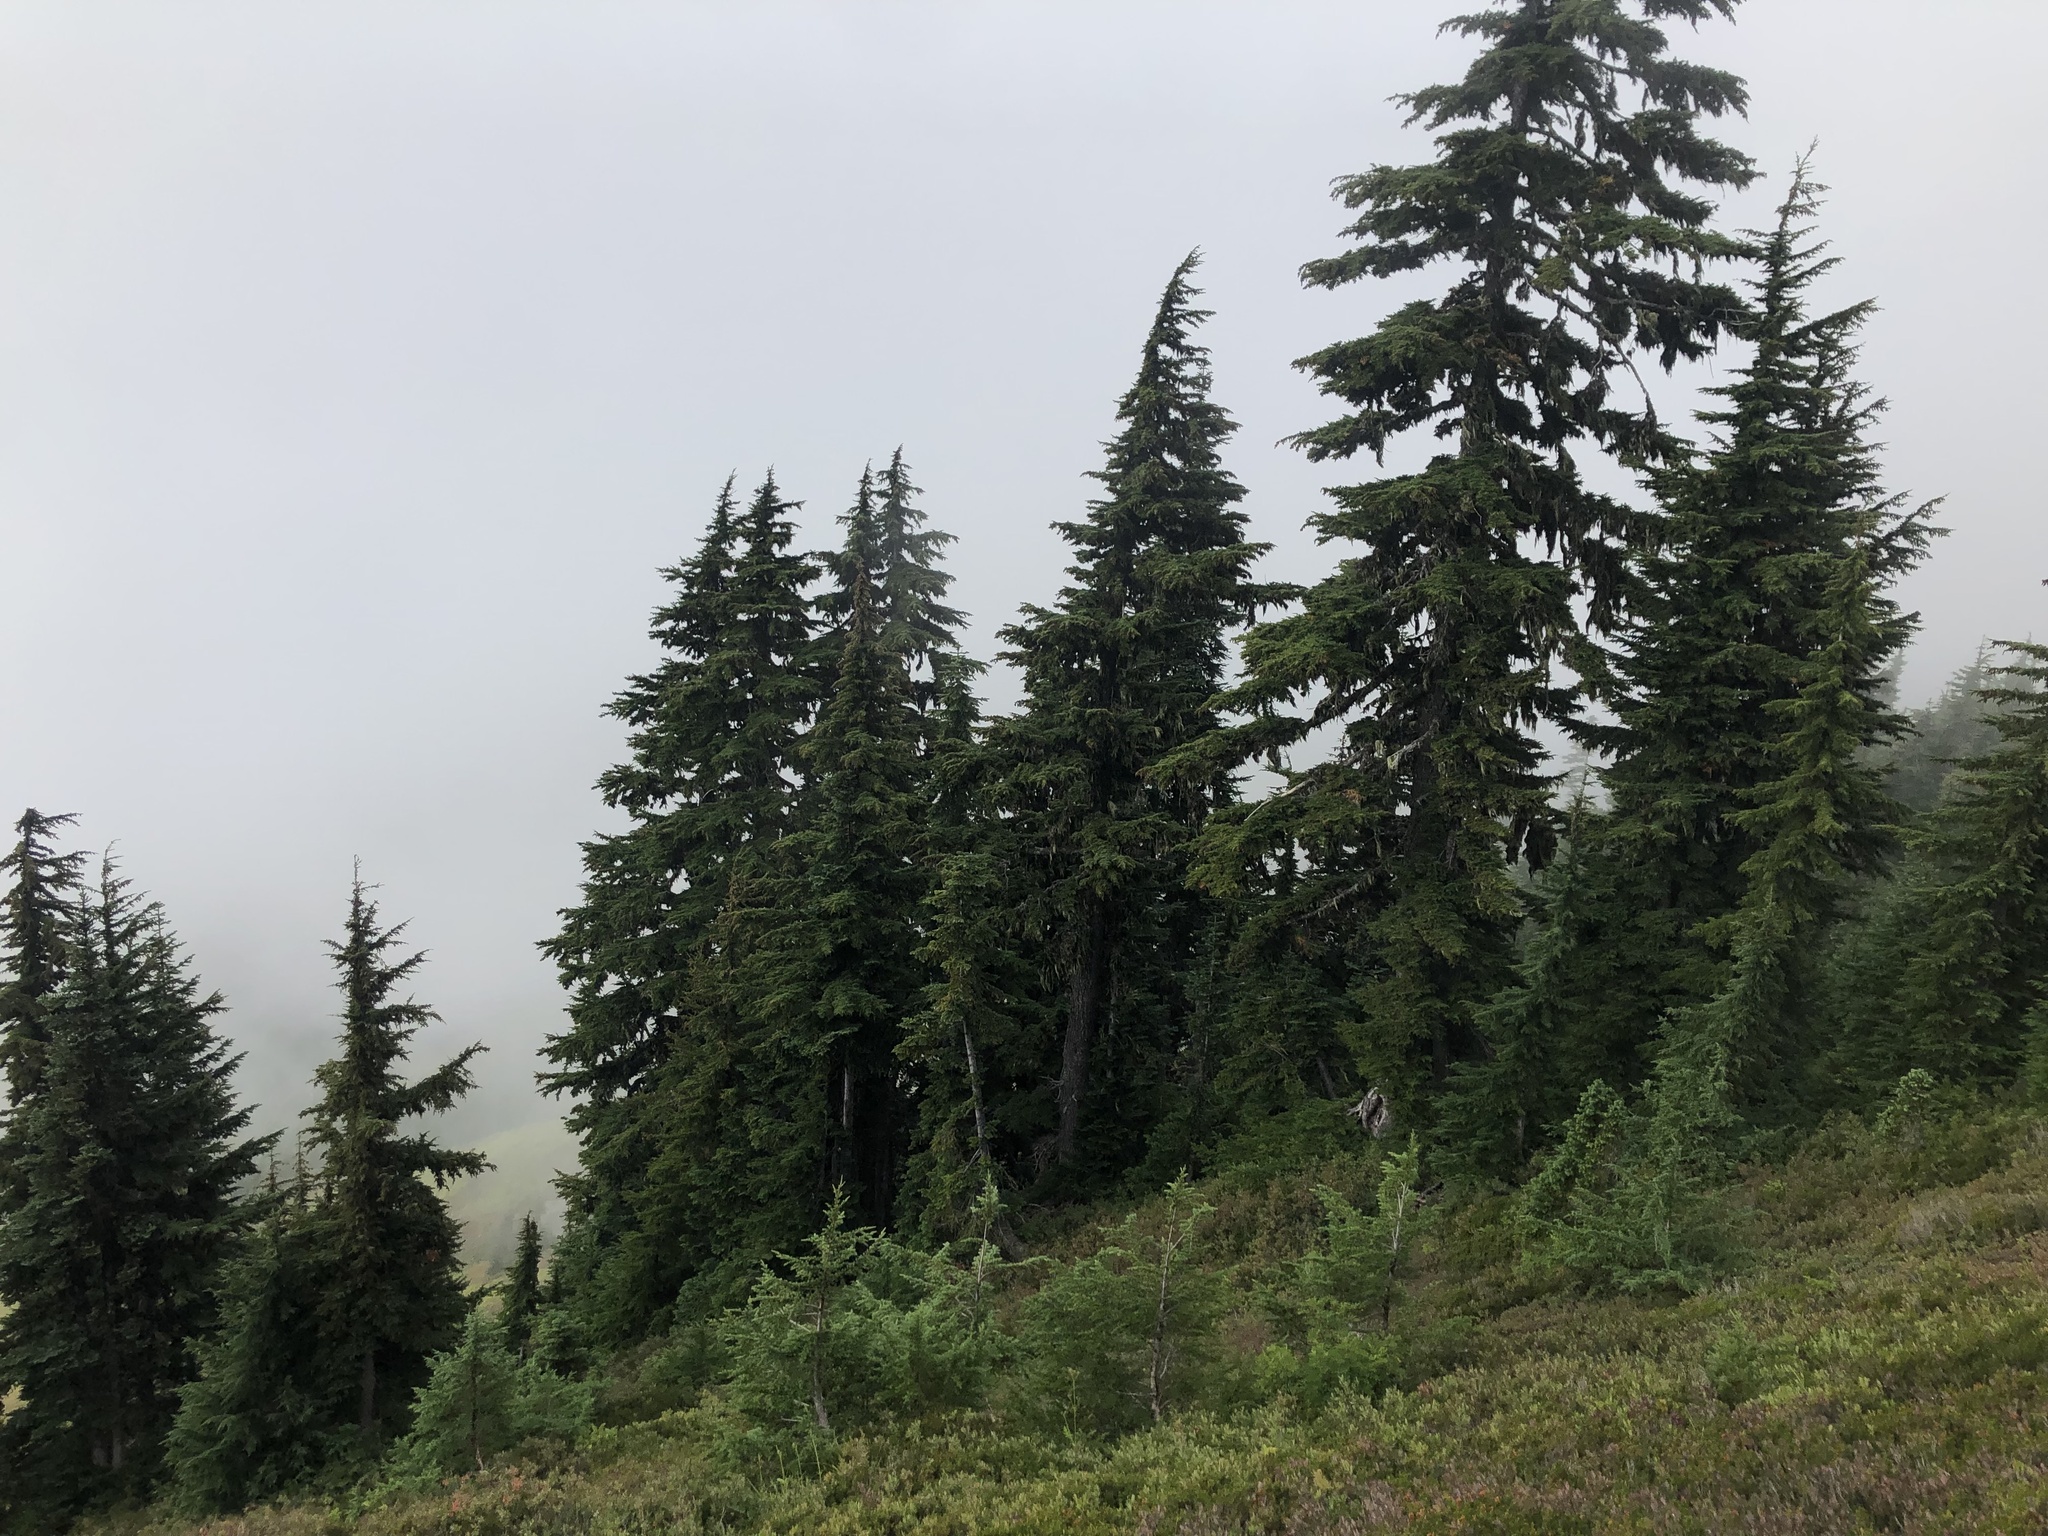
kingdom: Plantae
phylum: Tracheophyta
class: Pinopsida
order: Pinales
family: Pinaceae
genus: Tsuga
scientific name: Tsuga mertensiana
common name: Mountain hemlock
